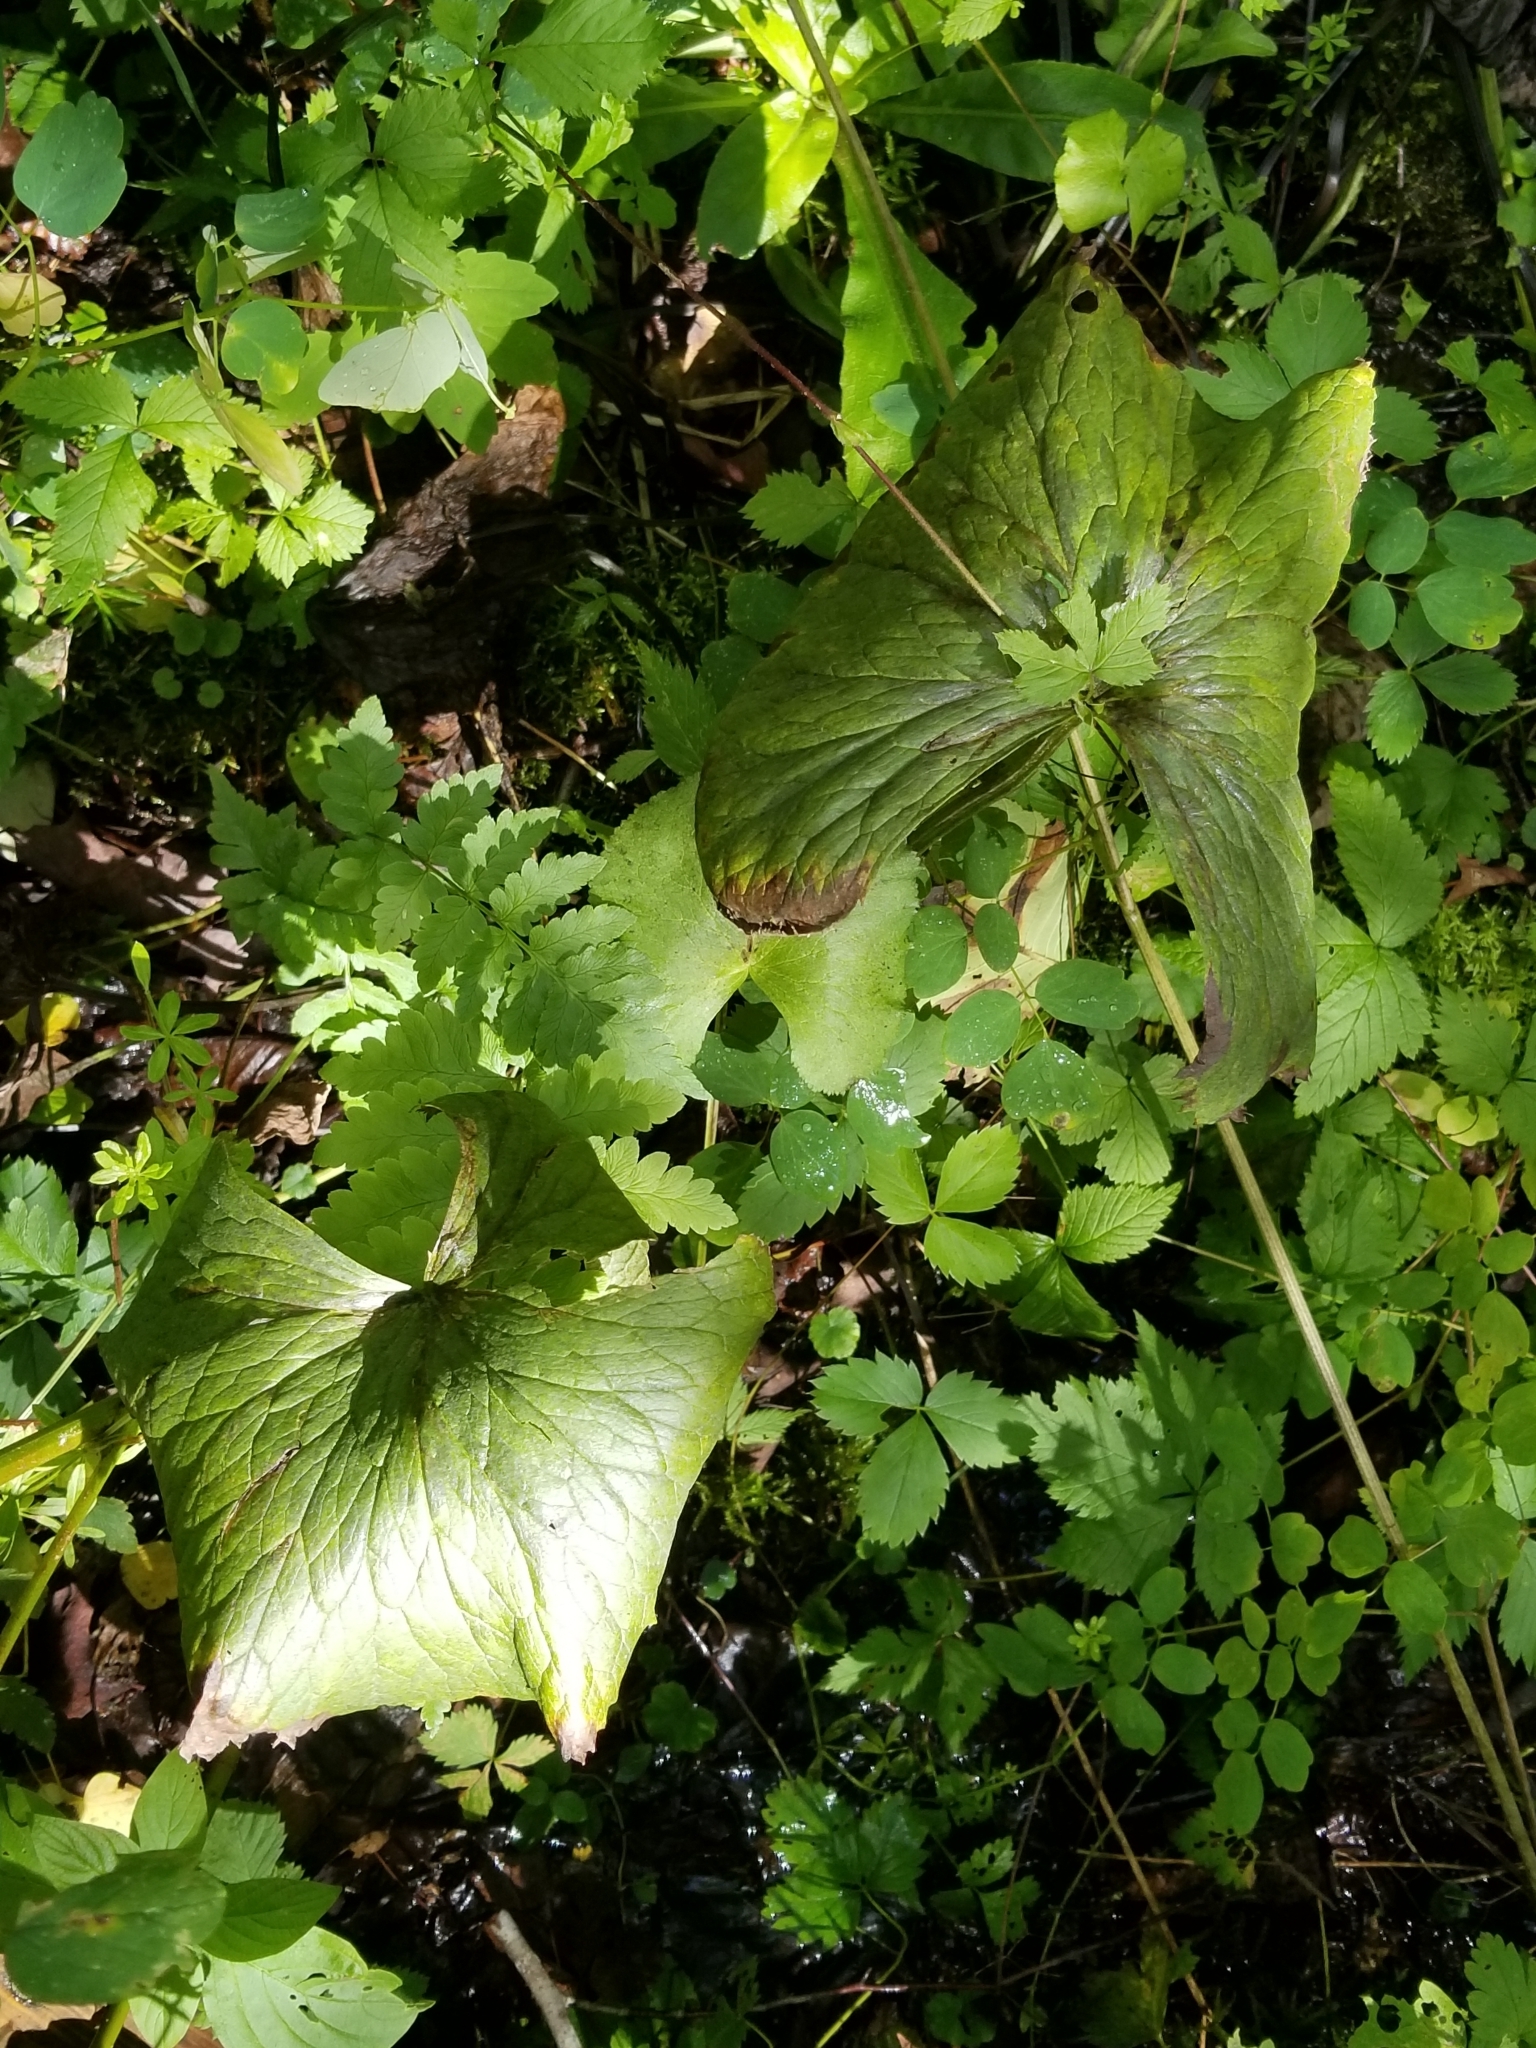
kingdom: Plantae
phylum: Tracheophyta
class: Magnoliopsida
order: Ranunculales
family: Ranunculaceae
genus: Caltha
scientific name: Caltha palustris
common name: Marsh marigold
